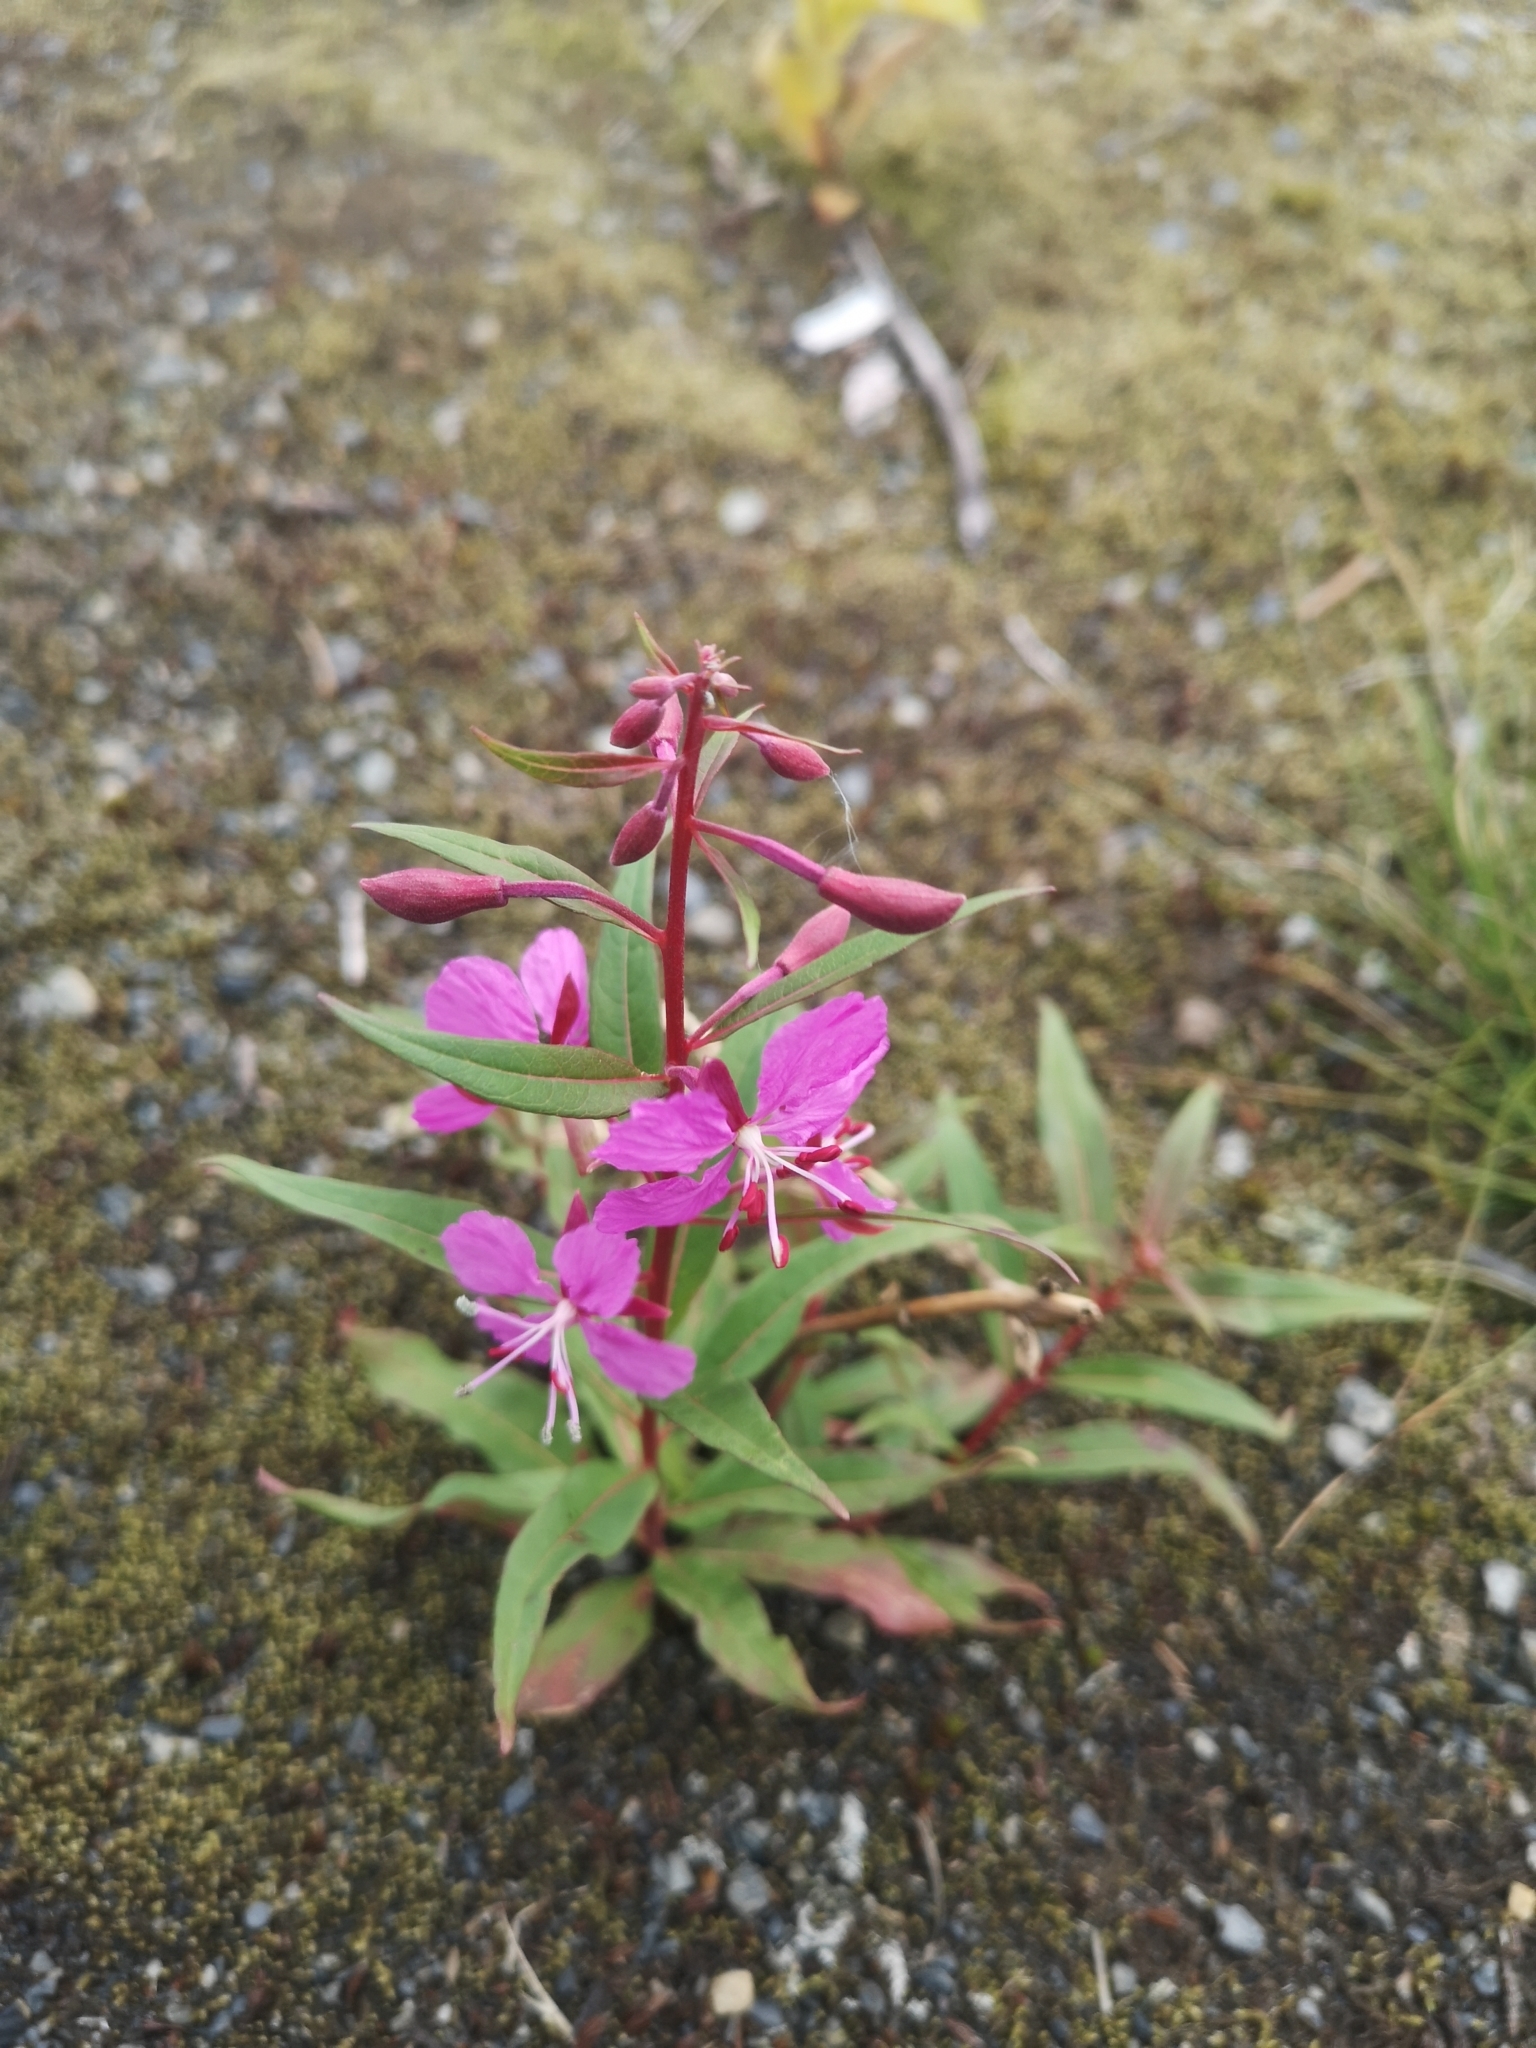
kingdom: Plantae
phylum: Tracheophyta
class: Magnoliopsida
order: Myrtales
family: Onagraceae
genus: Chamaenerion
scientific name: Chamaenerion angustifolium
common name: Fireweed
